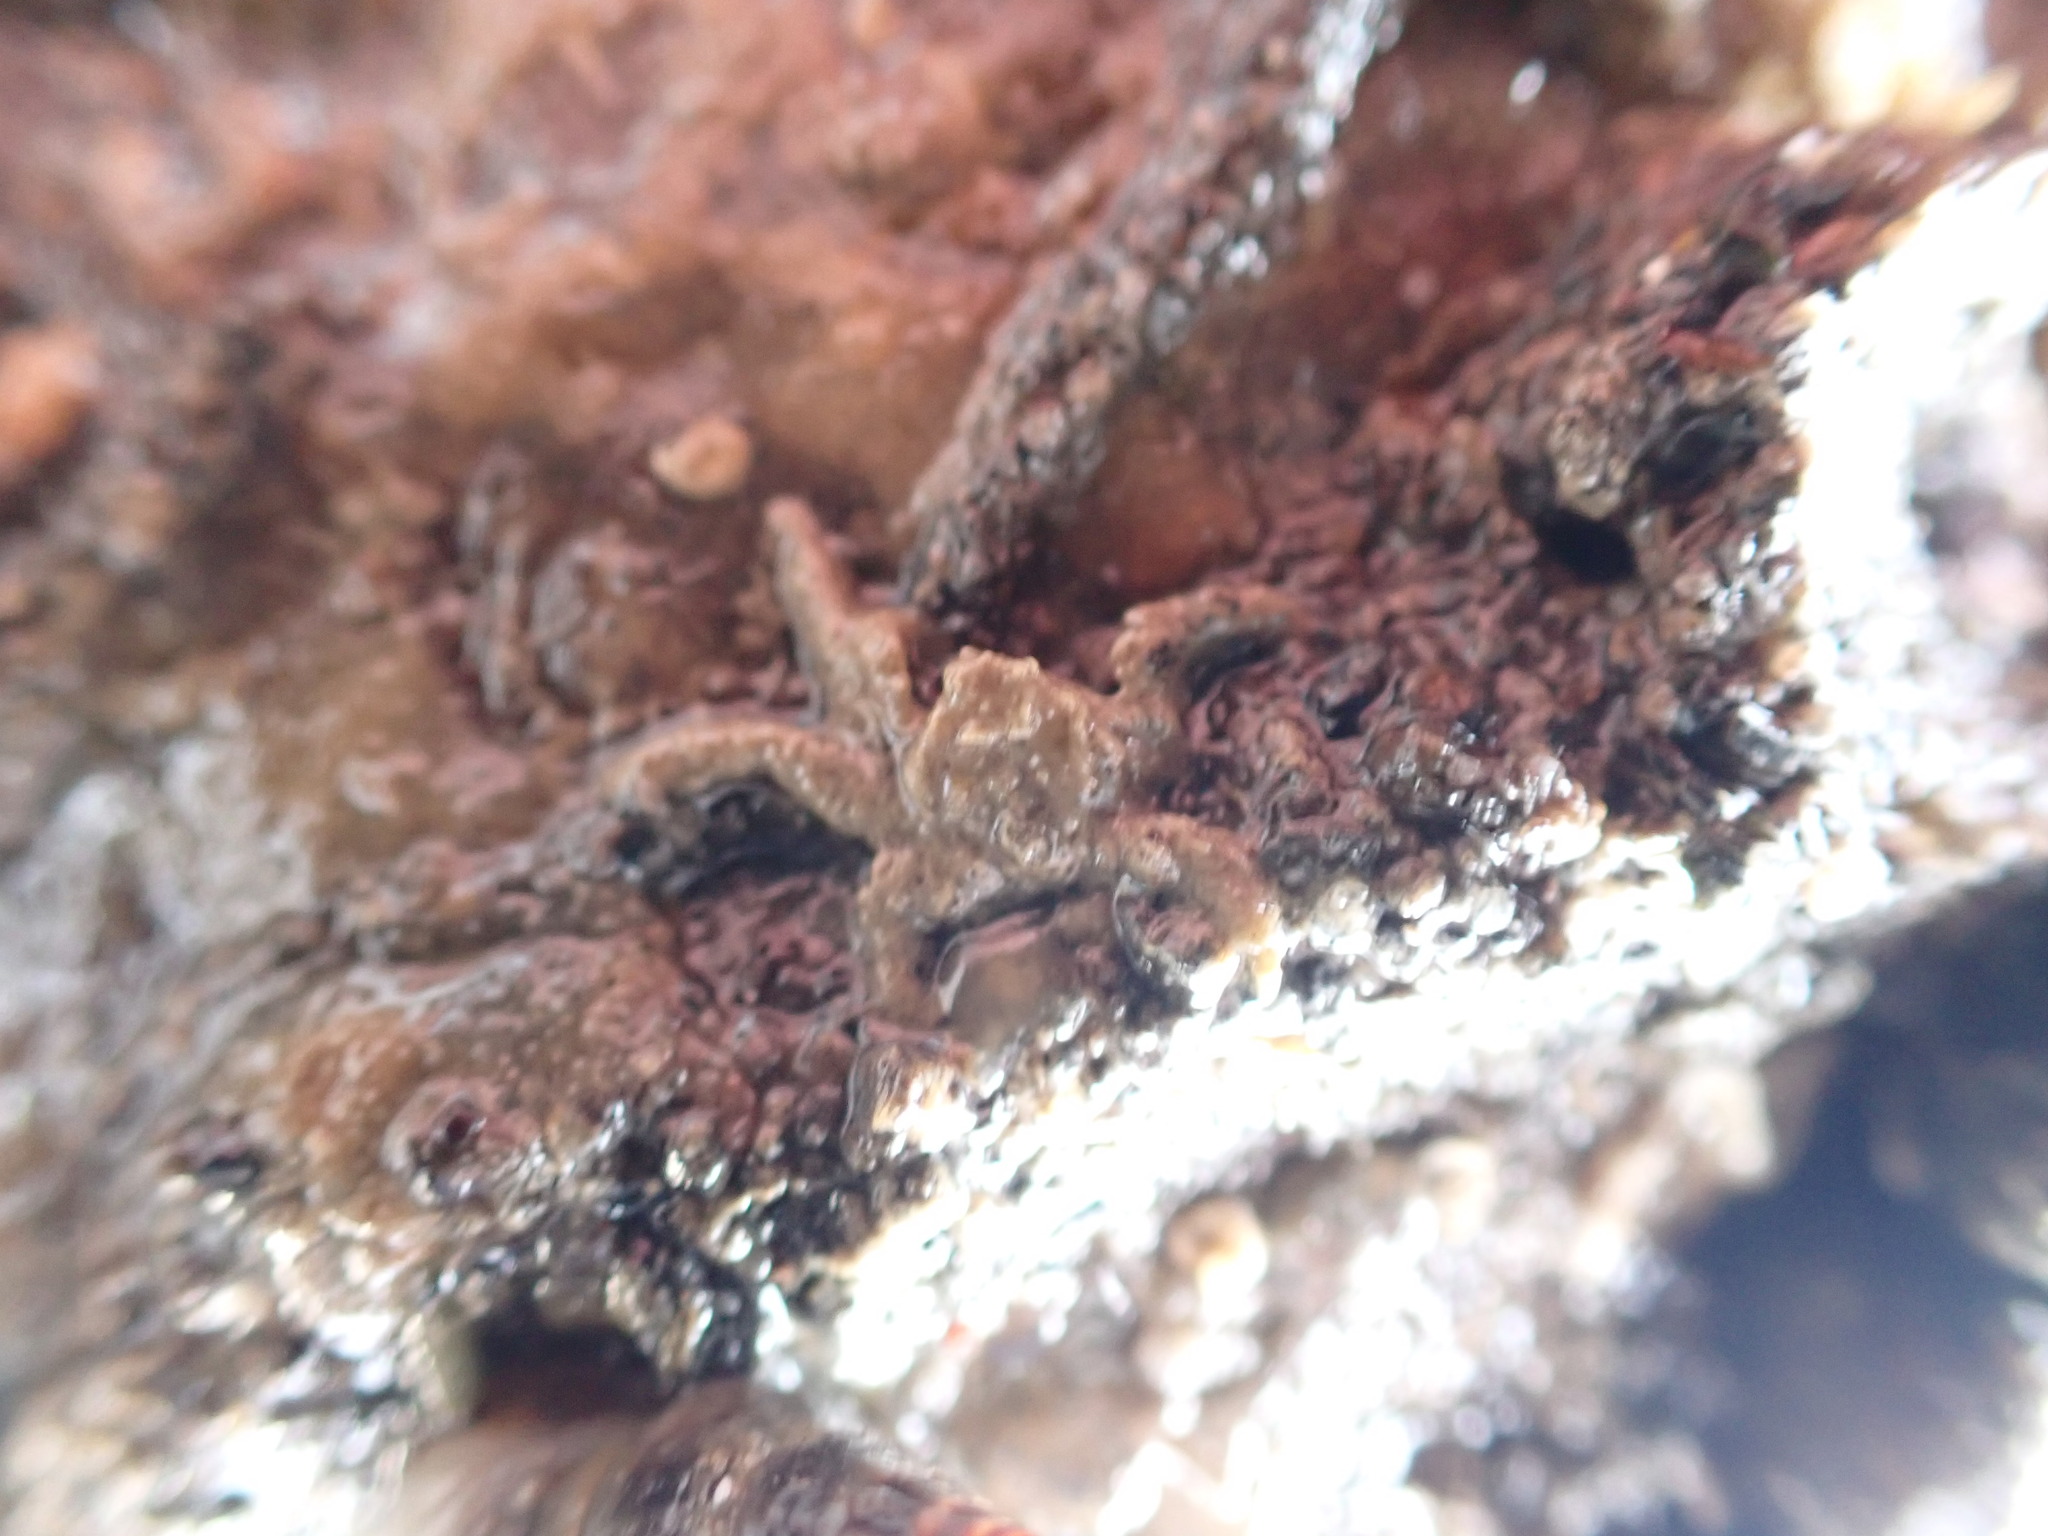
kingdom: Animalia
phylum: Arthropoda
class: Malacostraca
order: Decapoda
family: Hymenosomatidae
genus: Neohymenicus
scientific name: Neohymenicus pubescens
